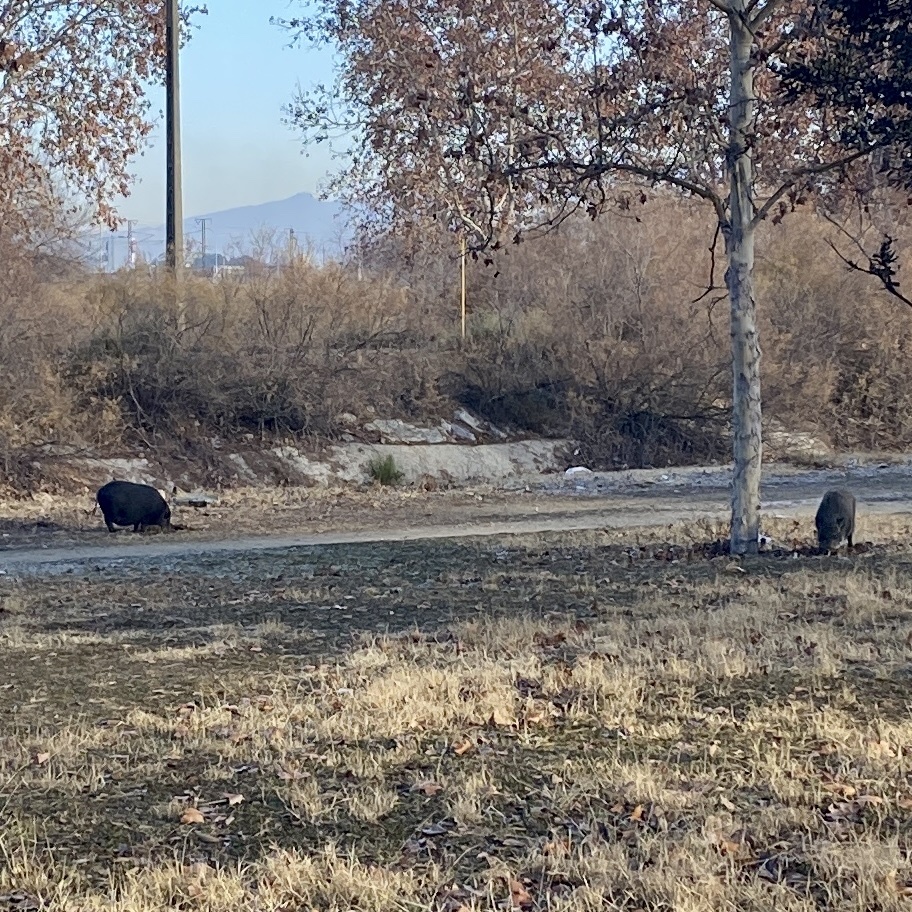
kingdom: Animalia
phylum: Chordata
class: Mammalia
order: Artiodactyla
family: Suidae
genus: Sus
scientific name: Sus scrofa
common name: Wild boar
